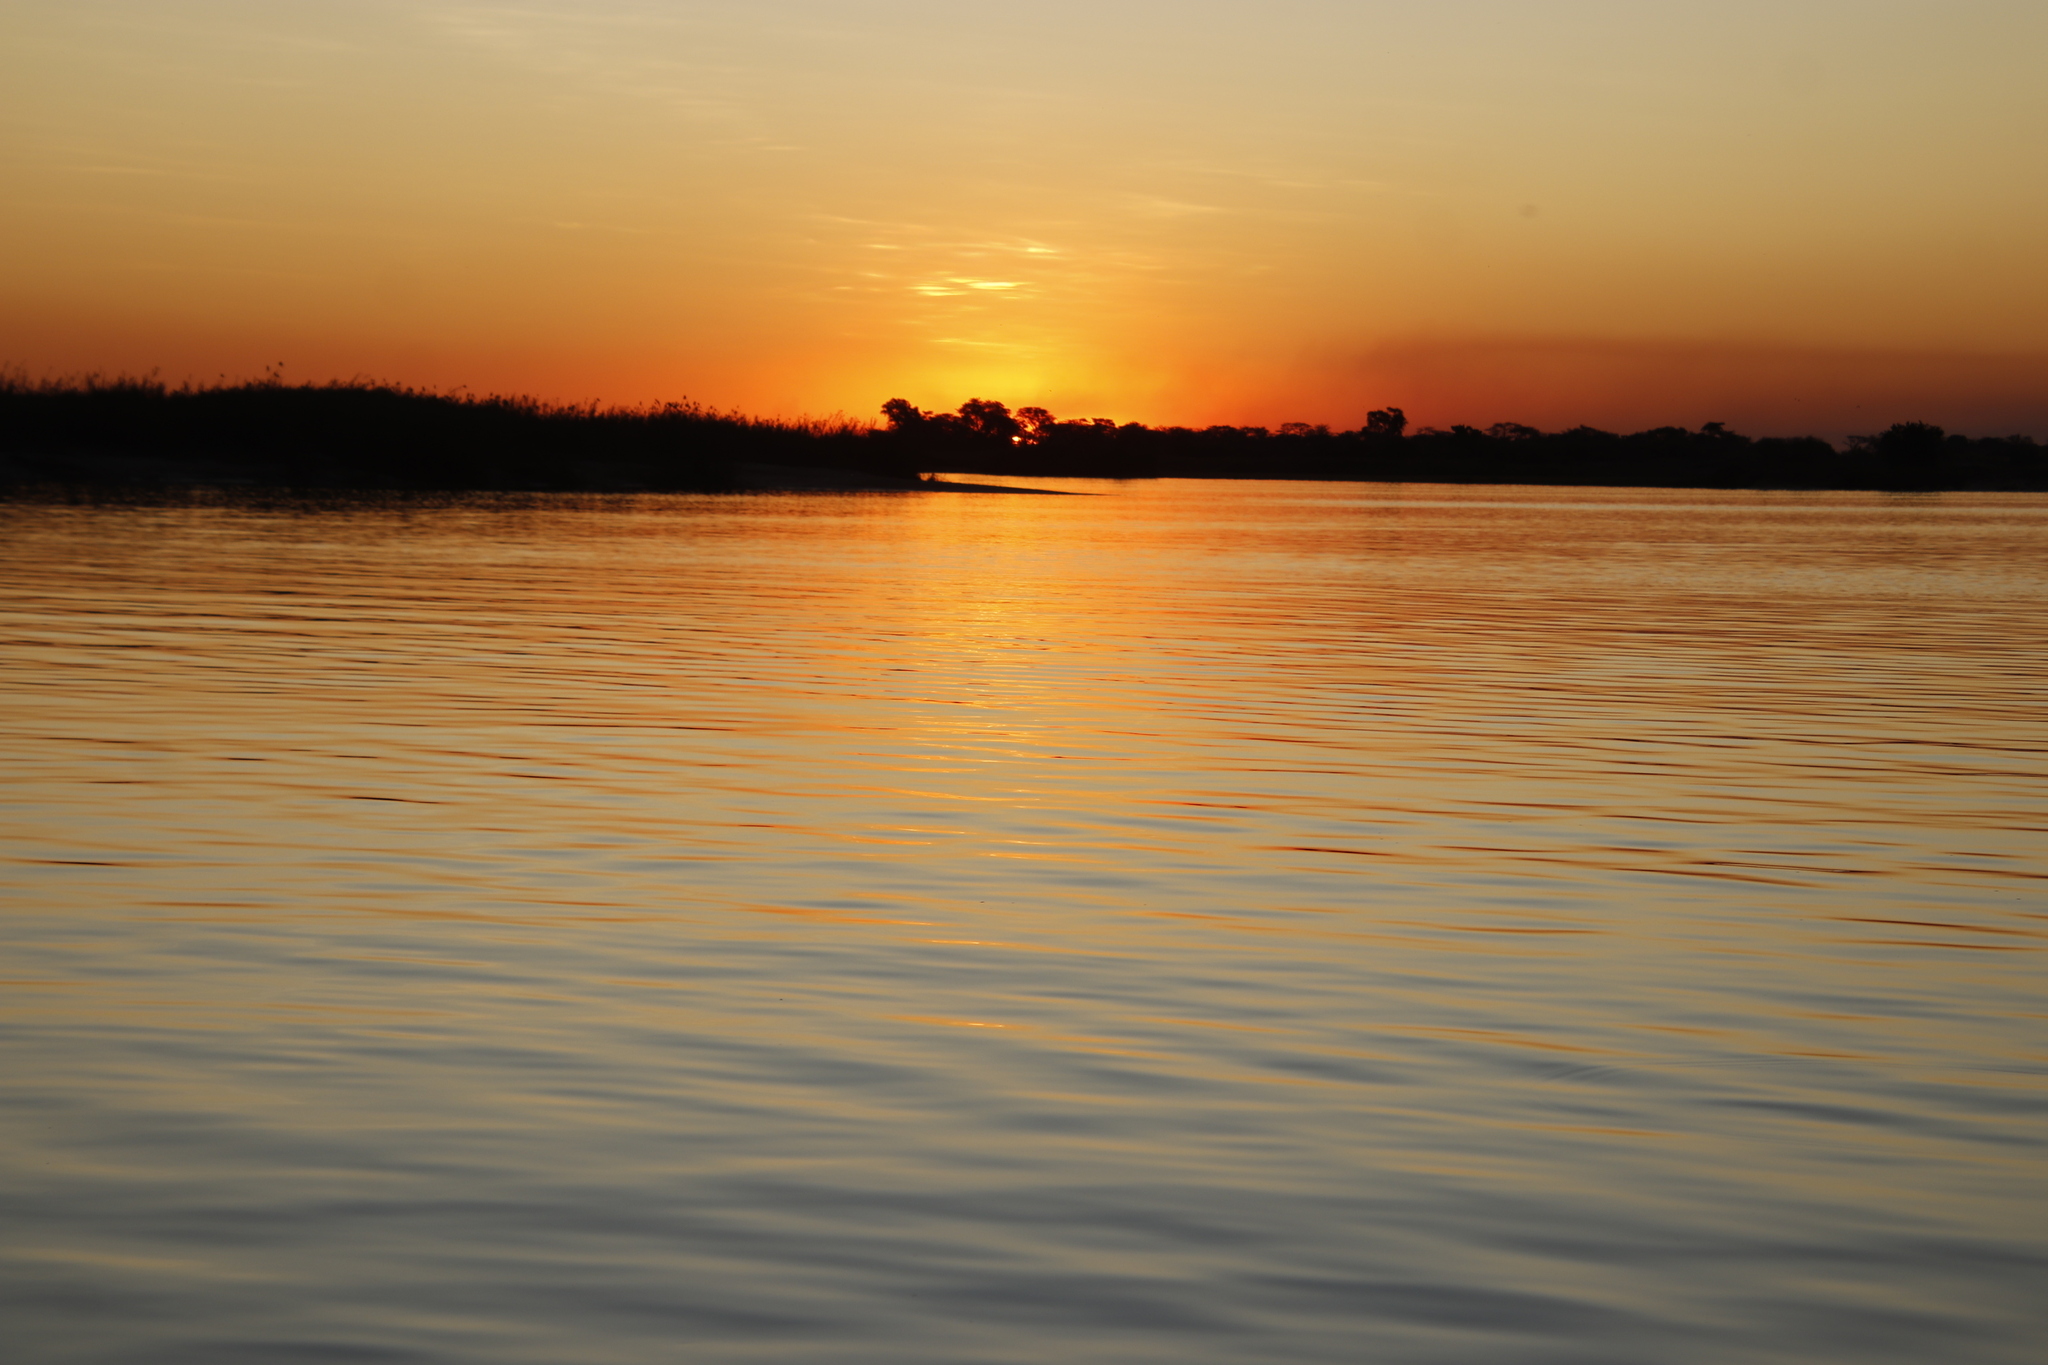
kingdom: Plantae
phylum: Tracheophyta
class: Liliopsida
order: Poales
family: Poaceae
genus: Phragmites
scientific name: Phragmites australis
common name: Common reed
